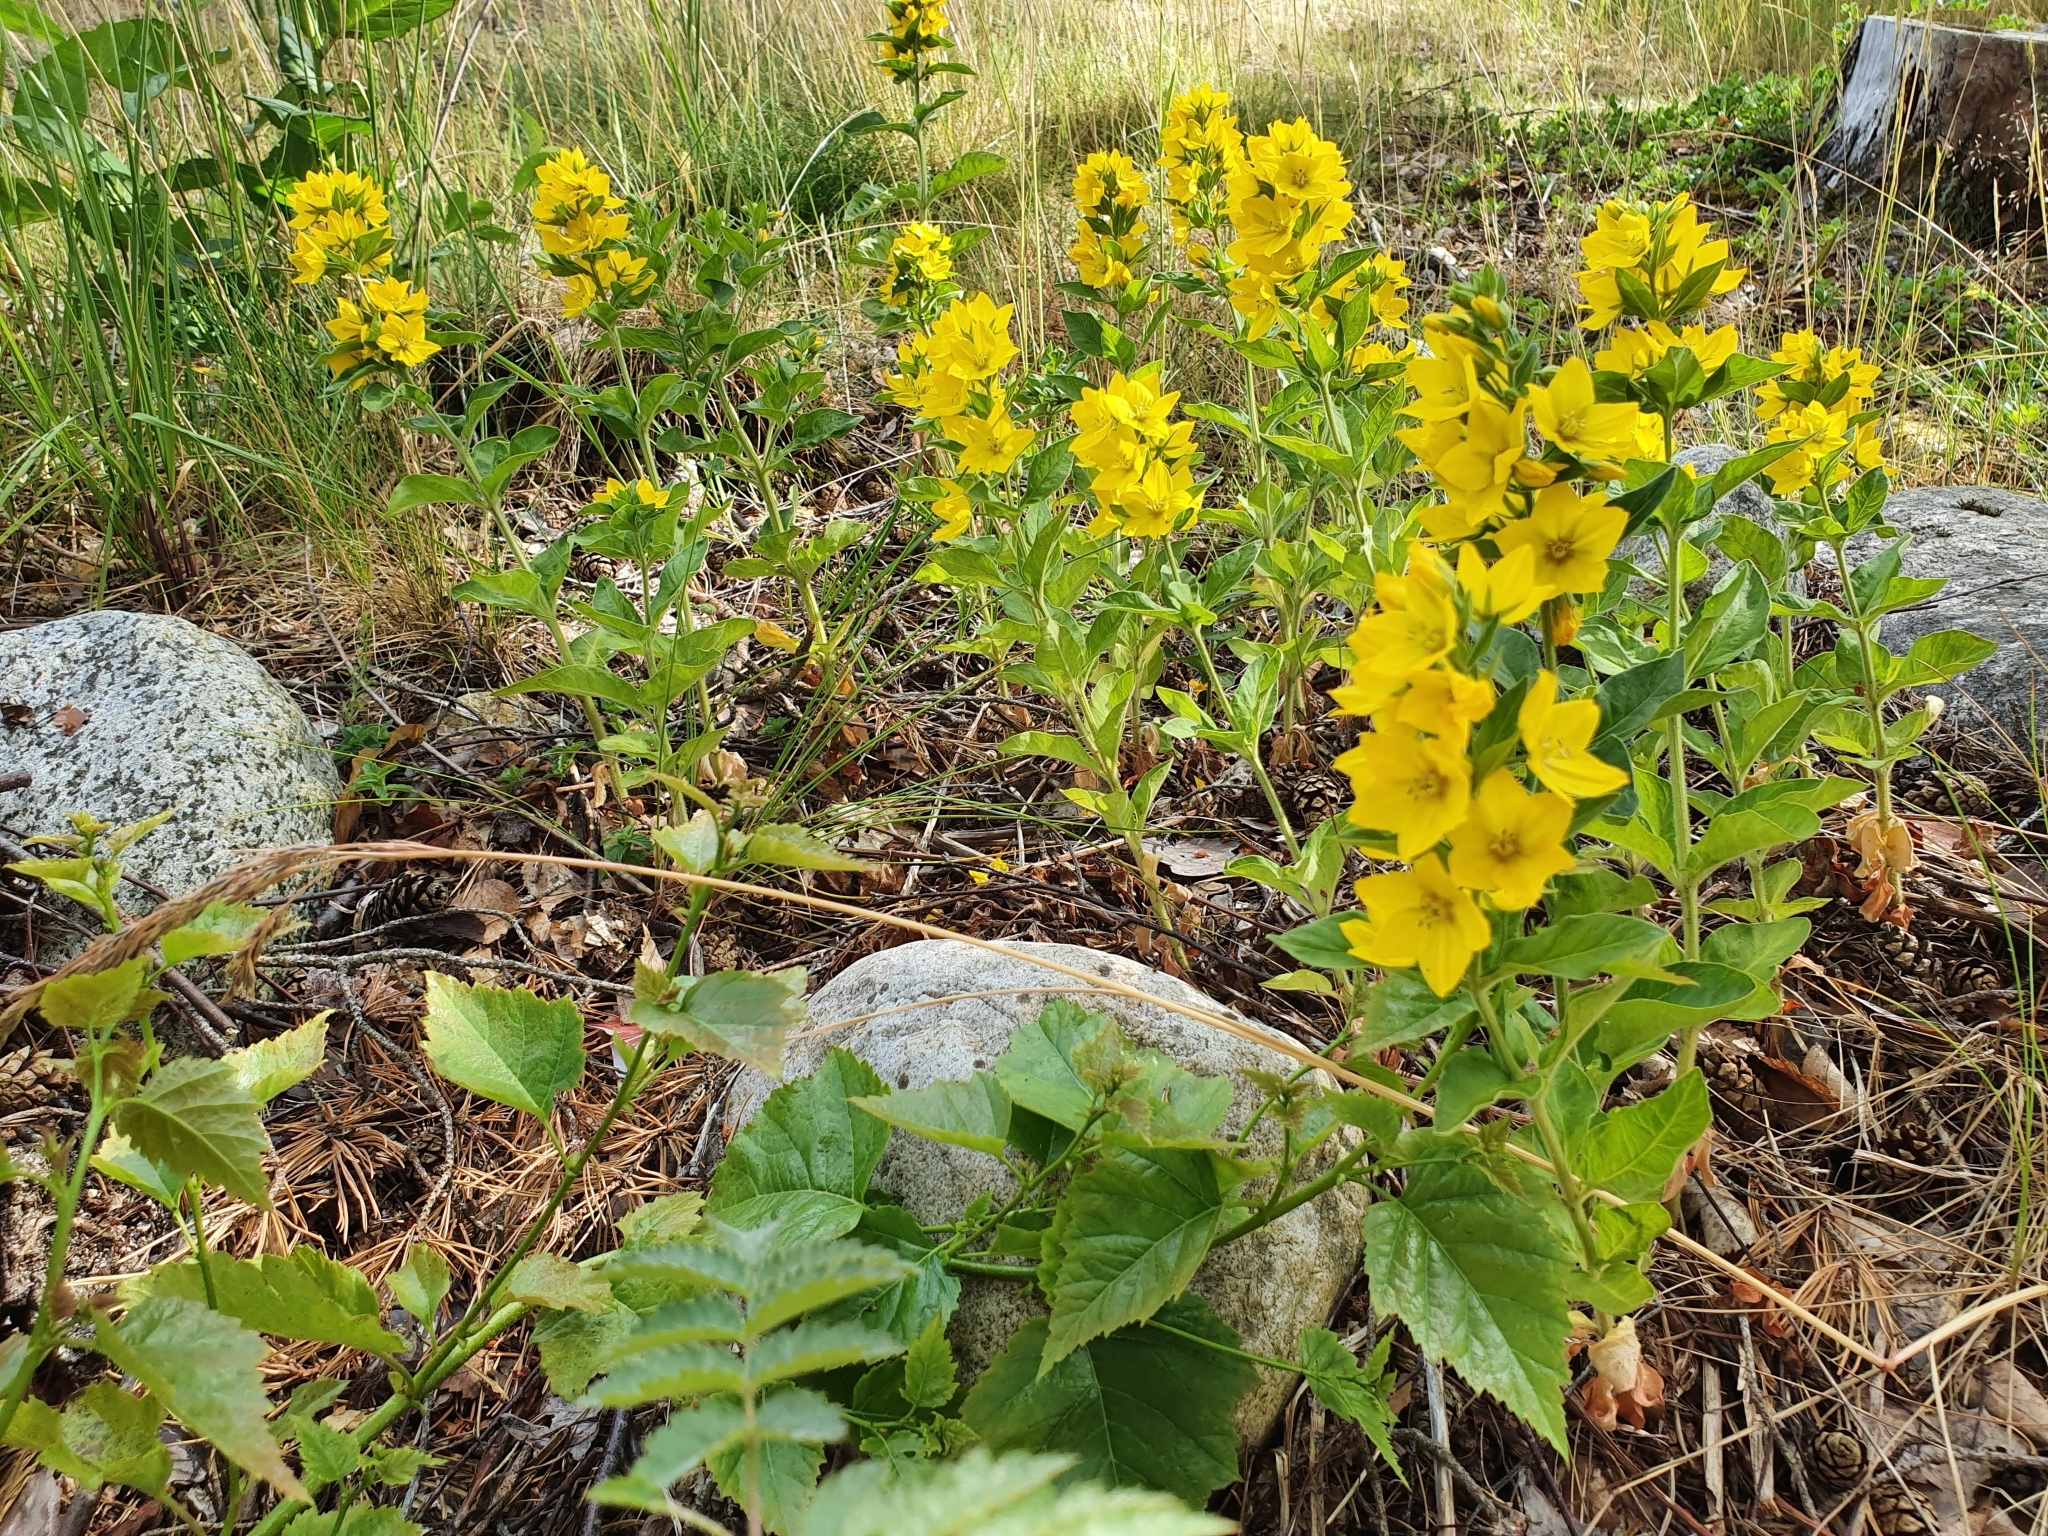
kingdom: Plantae
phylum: Tracheophyta
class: Magnoliopsida
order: Ericales
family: Primulaceae
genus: Lysimachia
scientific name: Lysimachia punctata
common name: Dotted loosestrife
